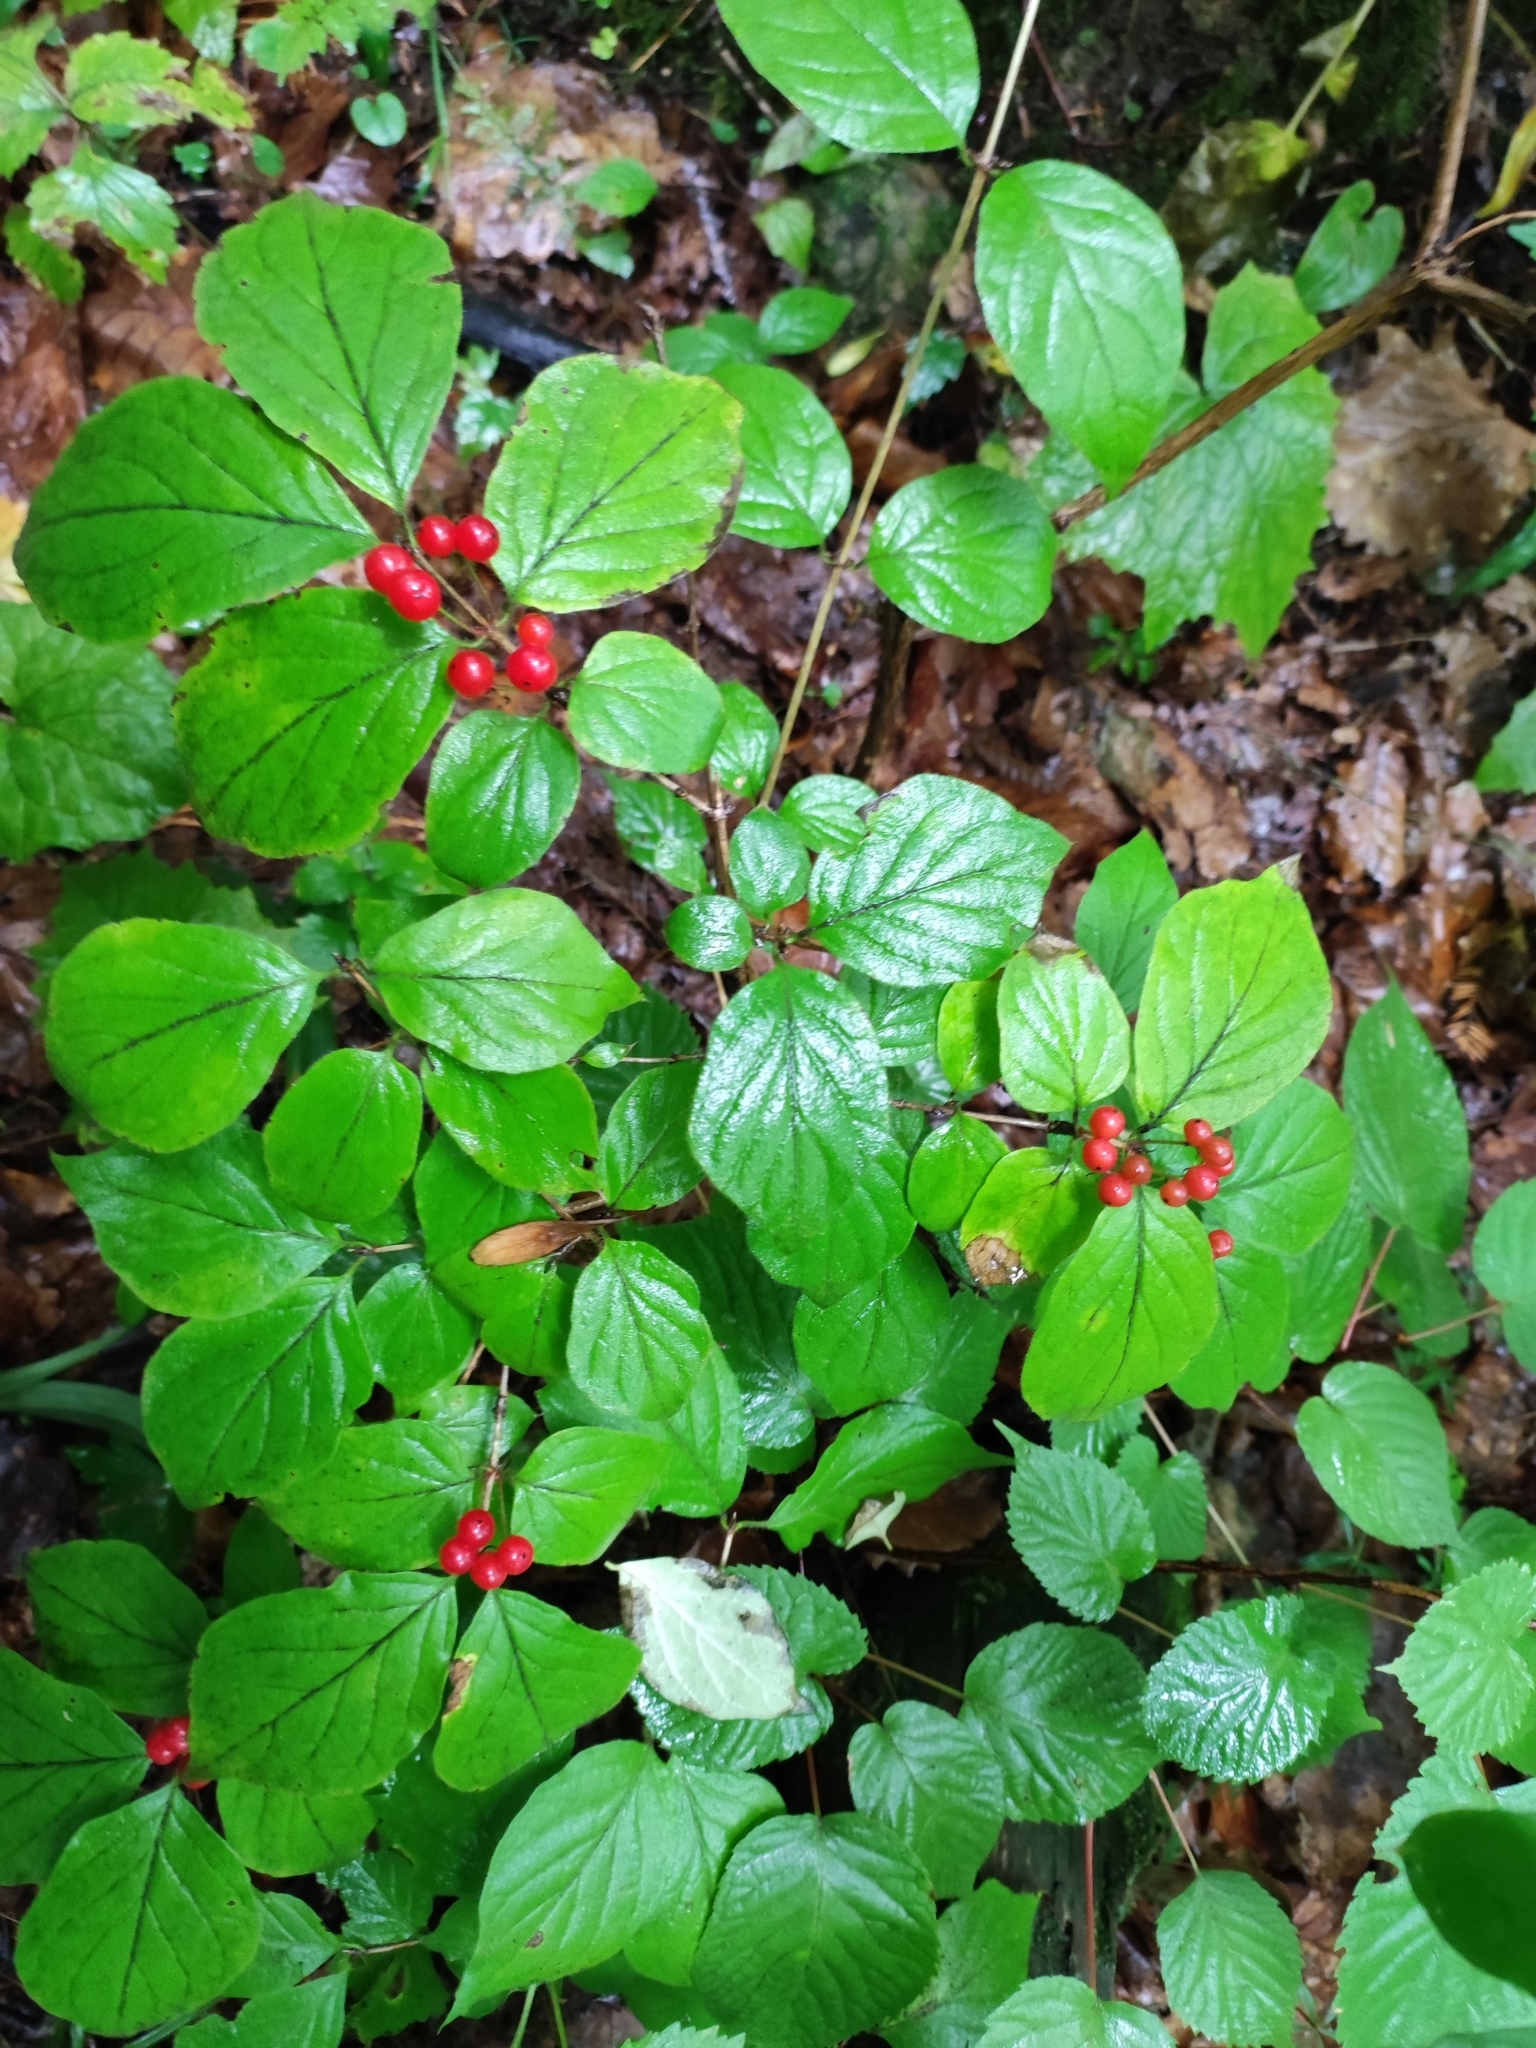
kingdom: Plantae
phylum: Tracheophyta
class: Magnoliopsida
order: Dipsacales
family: Caprifoliaceae
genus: Lonicera
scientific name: Lonicera chrysantha
